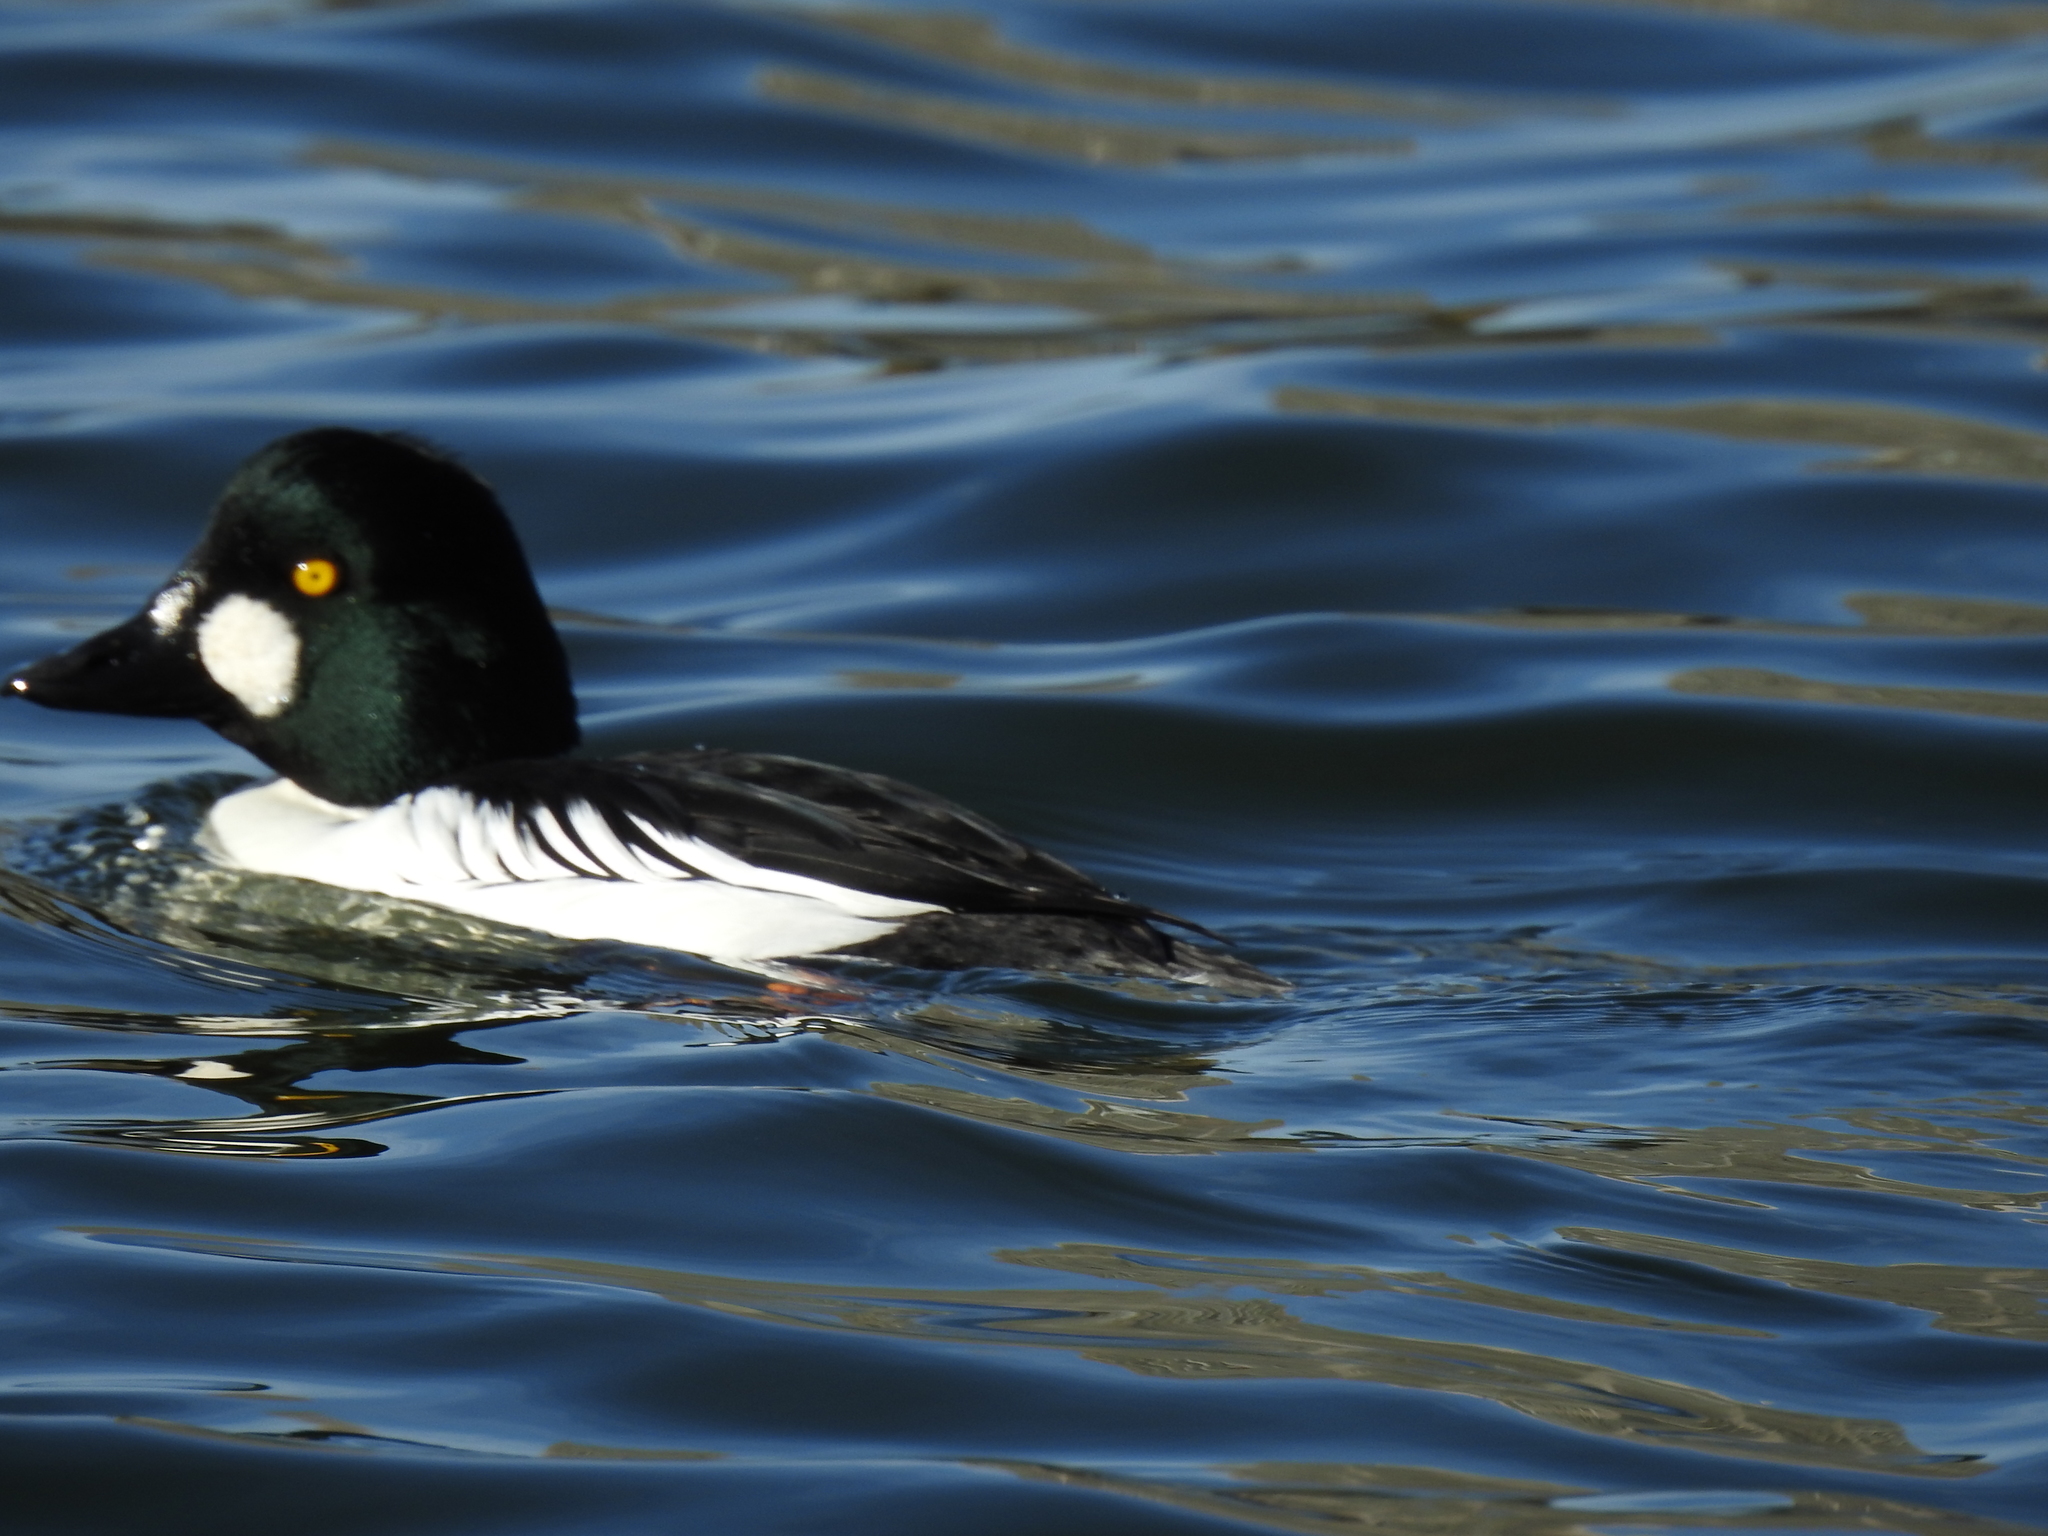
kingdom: Animalia
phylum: Chordata
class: Aves
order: Anseriformes
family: Anatidae
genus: Bucephala
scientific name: Bucephala clangula
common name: Common goldeneye
